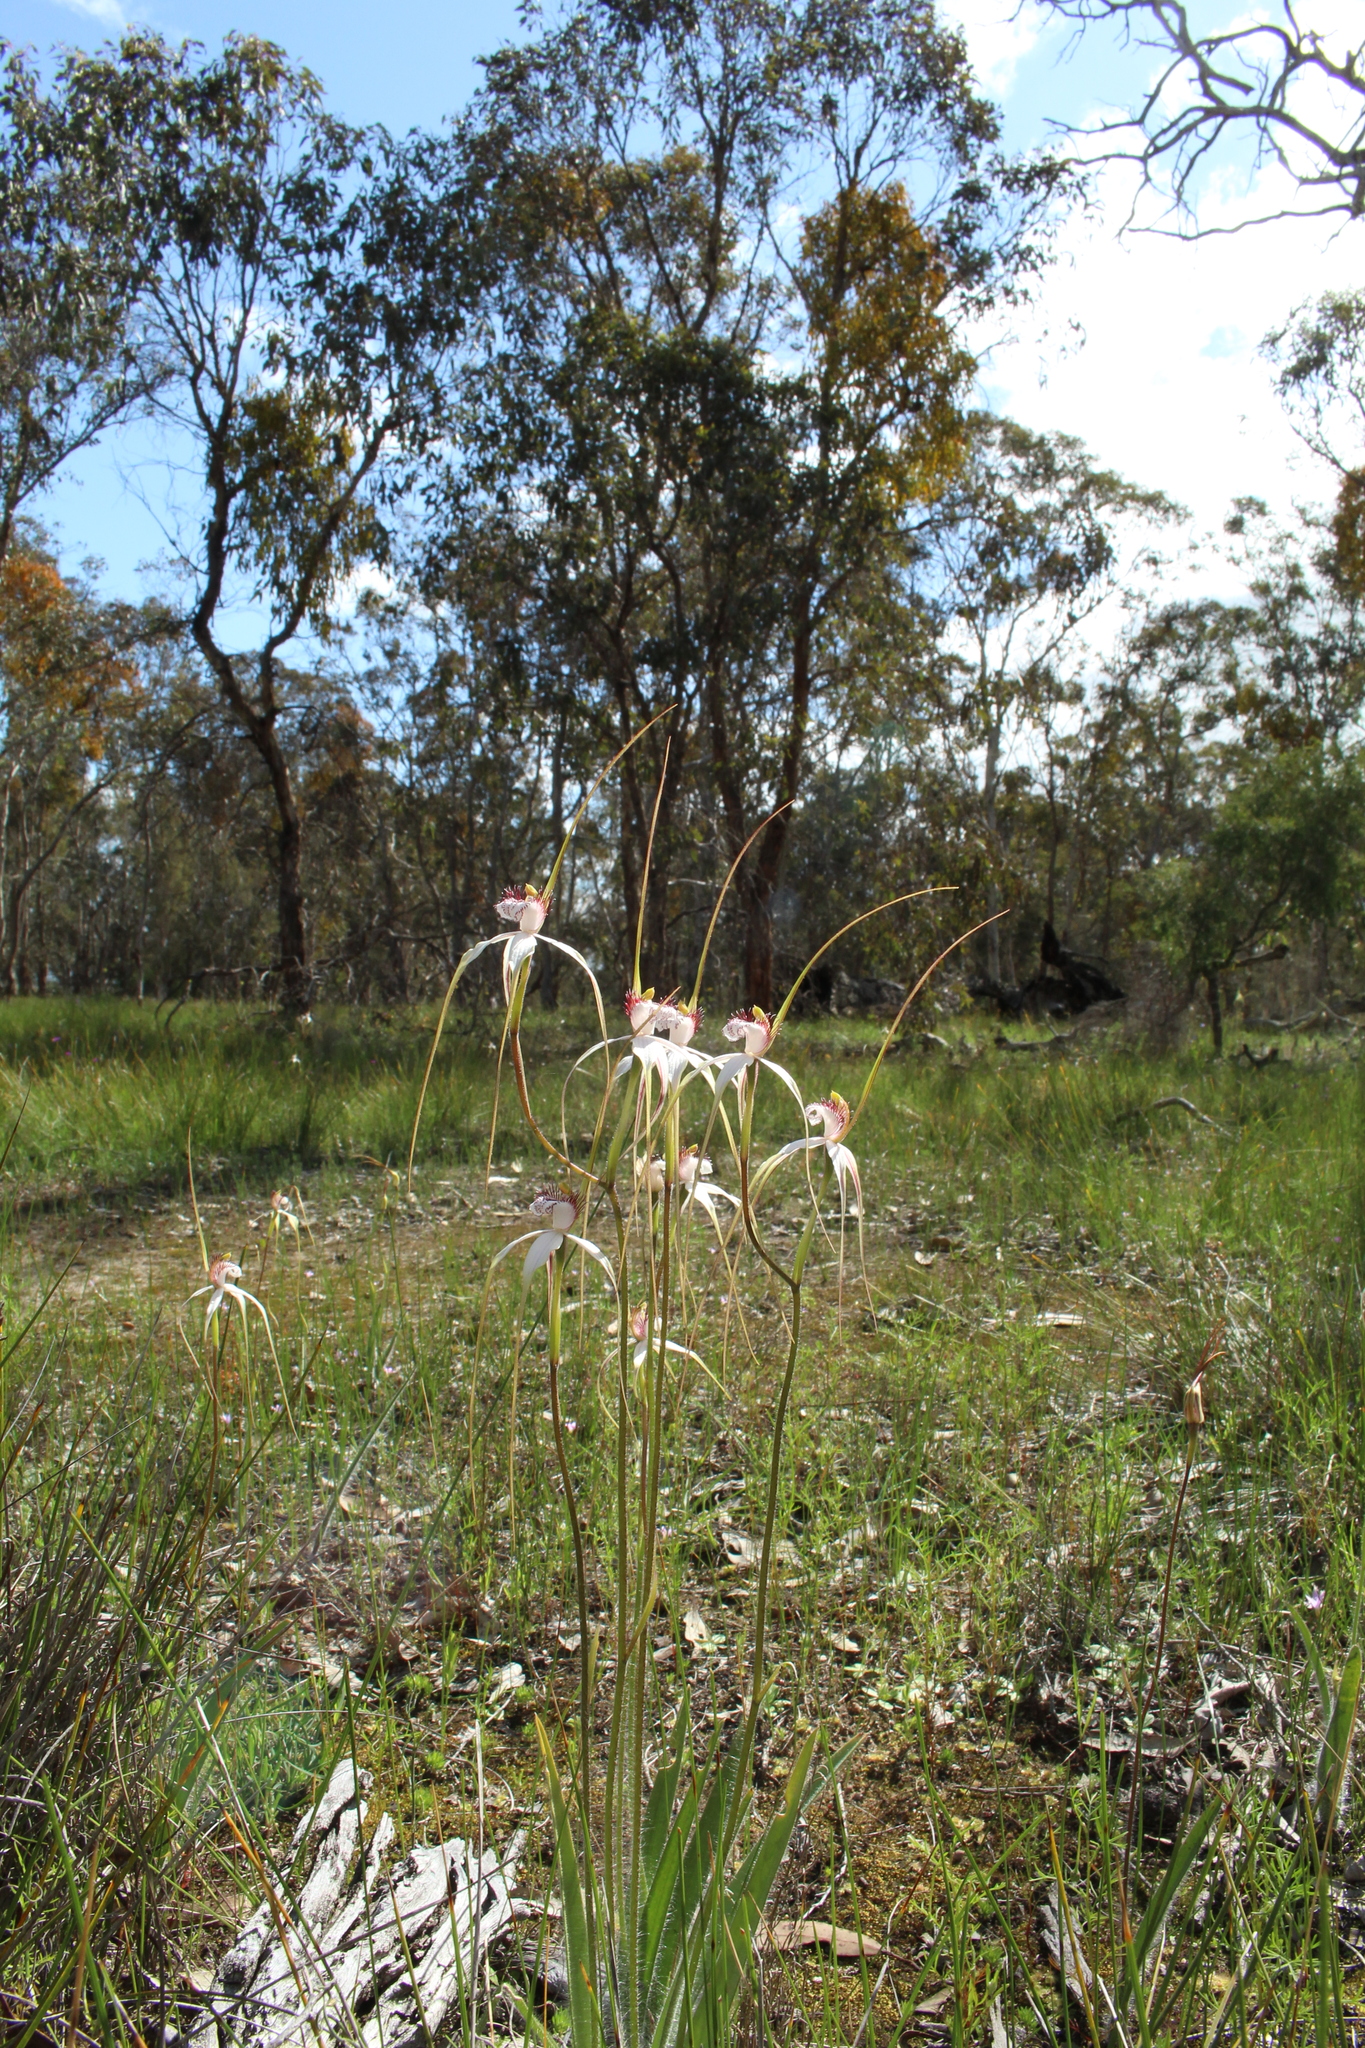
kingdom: Plantae
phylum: Tracheophyta
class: Liliopsida
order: Asparagales
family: Orchidaceae
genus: Caladenia
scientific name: Caladenia longicauda
